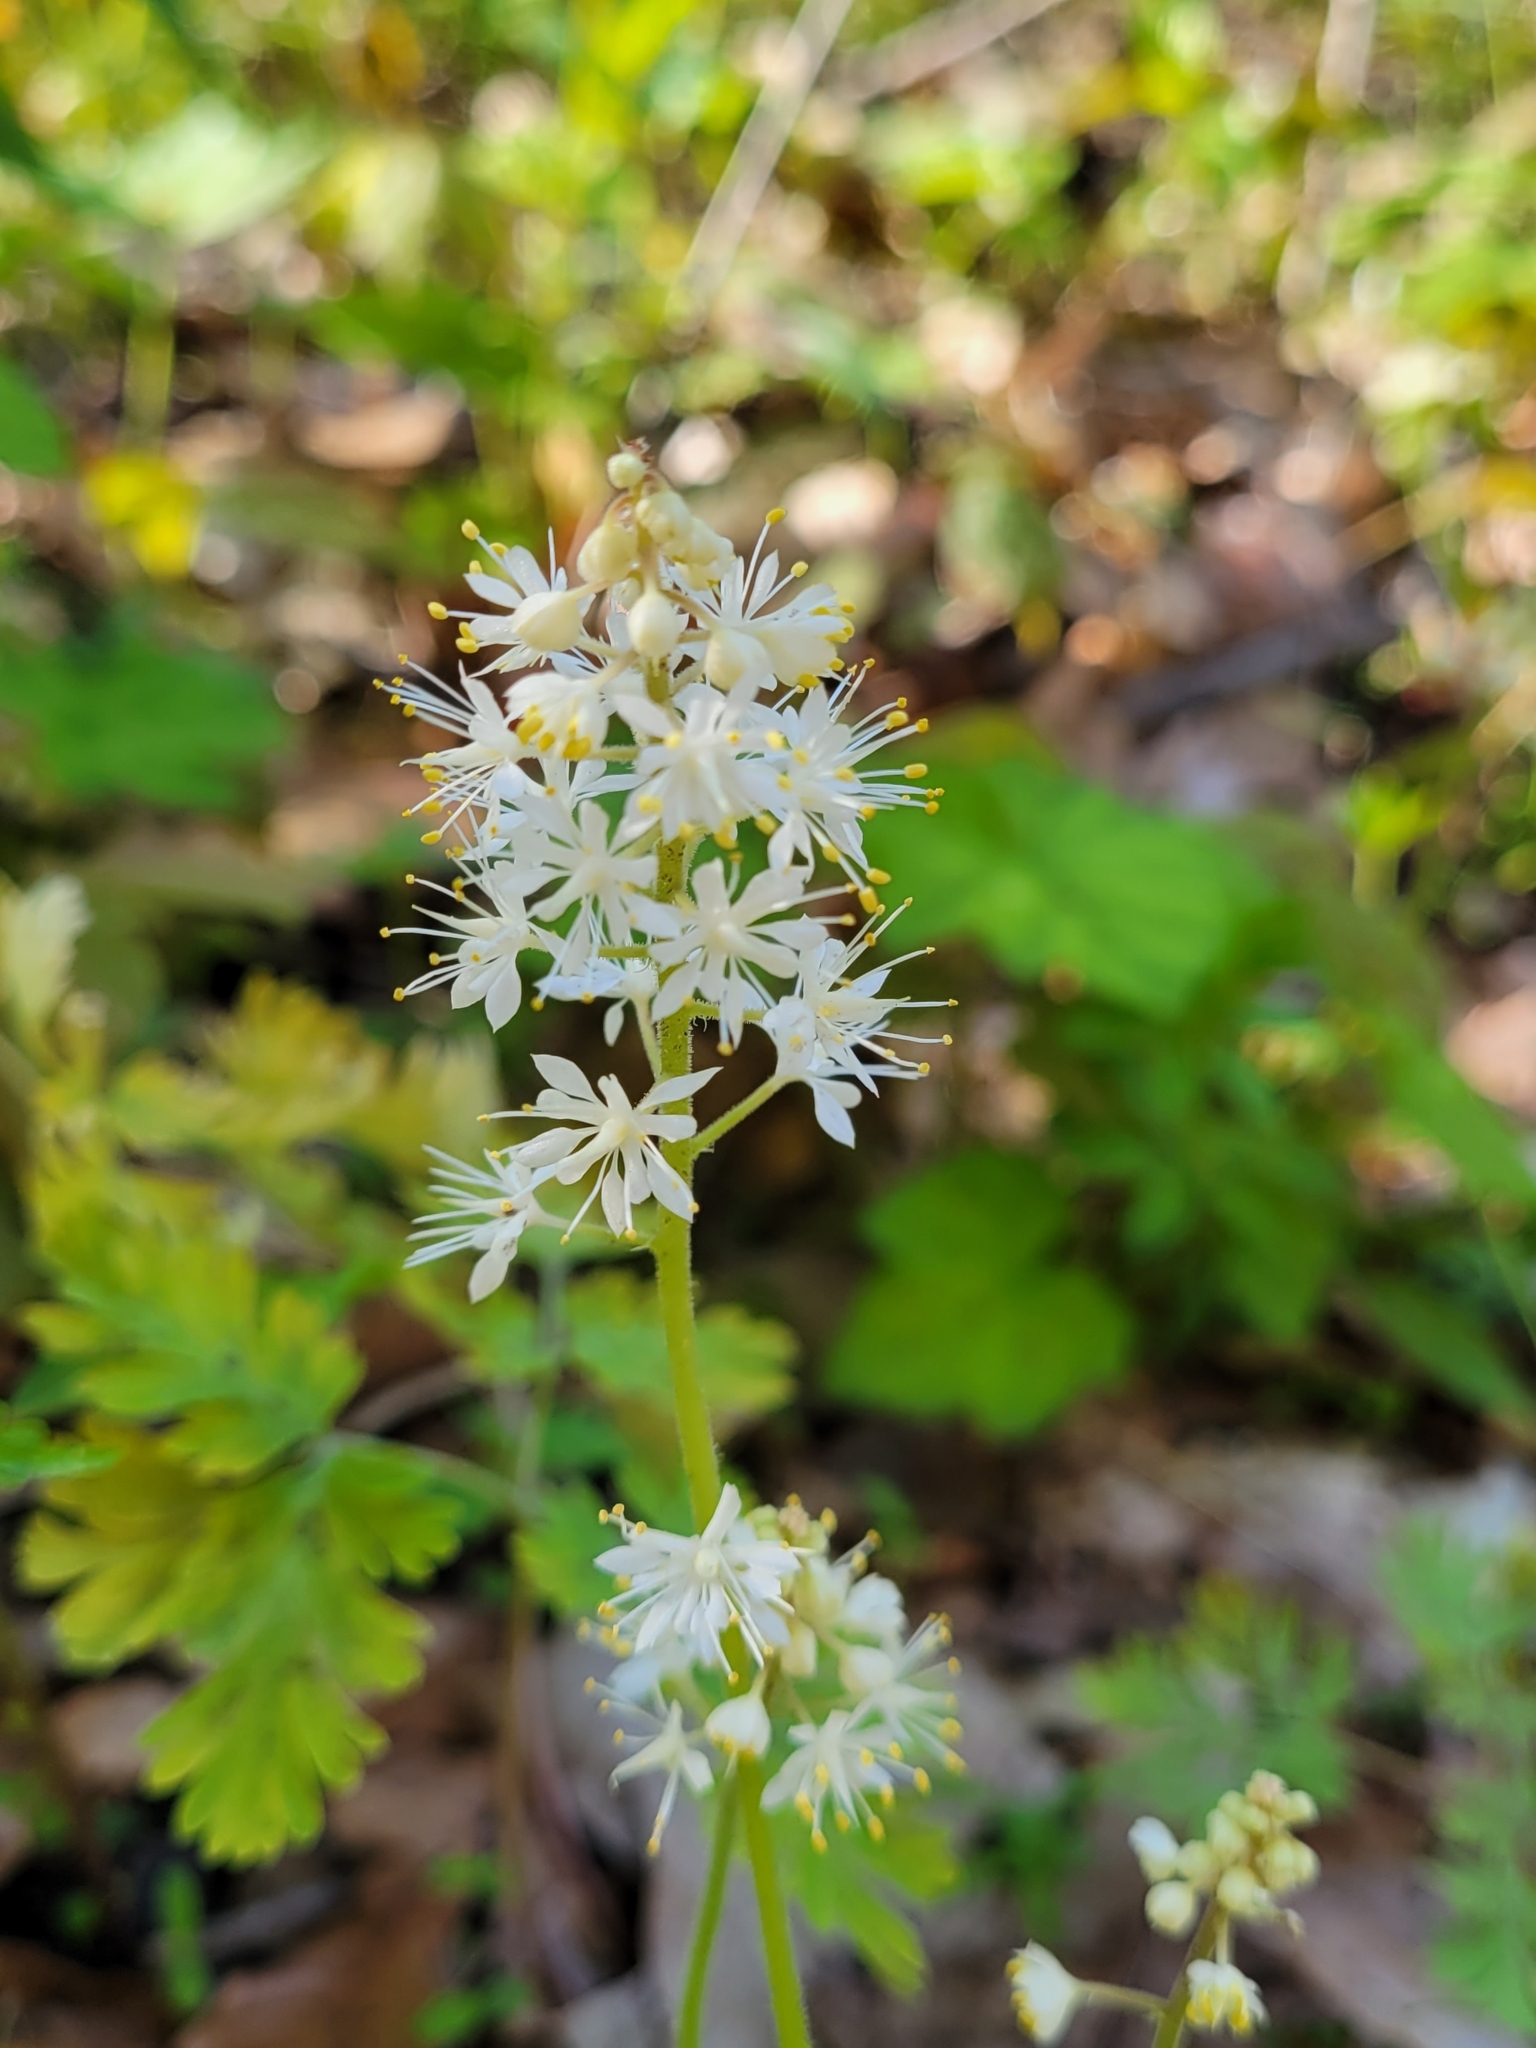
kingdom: Plantae
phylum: Tracheophyta
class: Magnoliopsida
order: Saxifragales
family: Saxifragaceae
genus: Tiarella
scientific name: Tiarella stolonifera
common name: Stoloniferous foamflower
